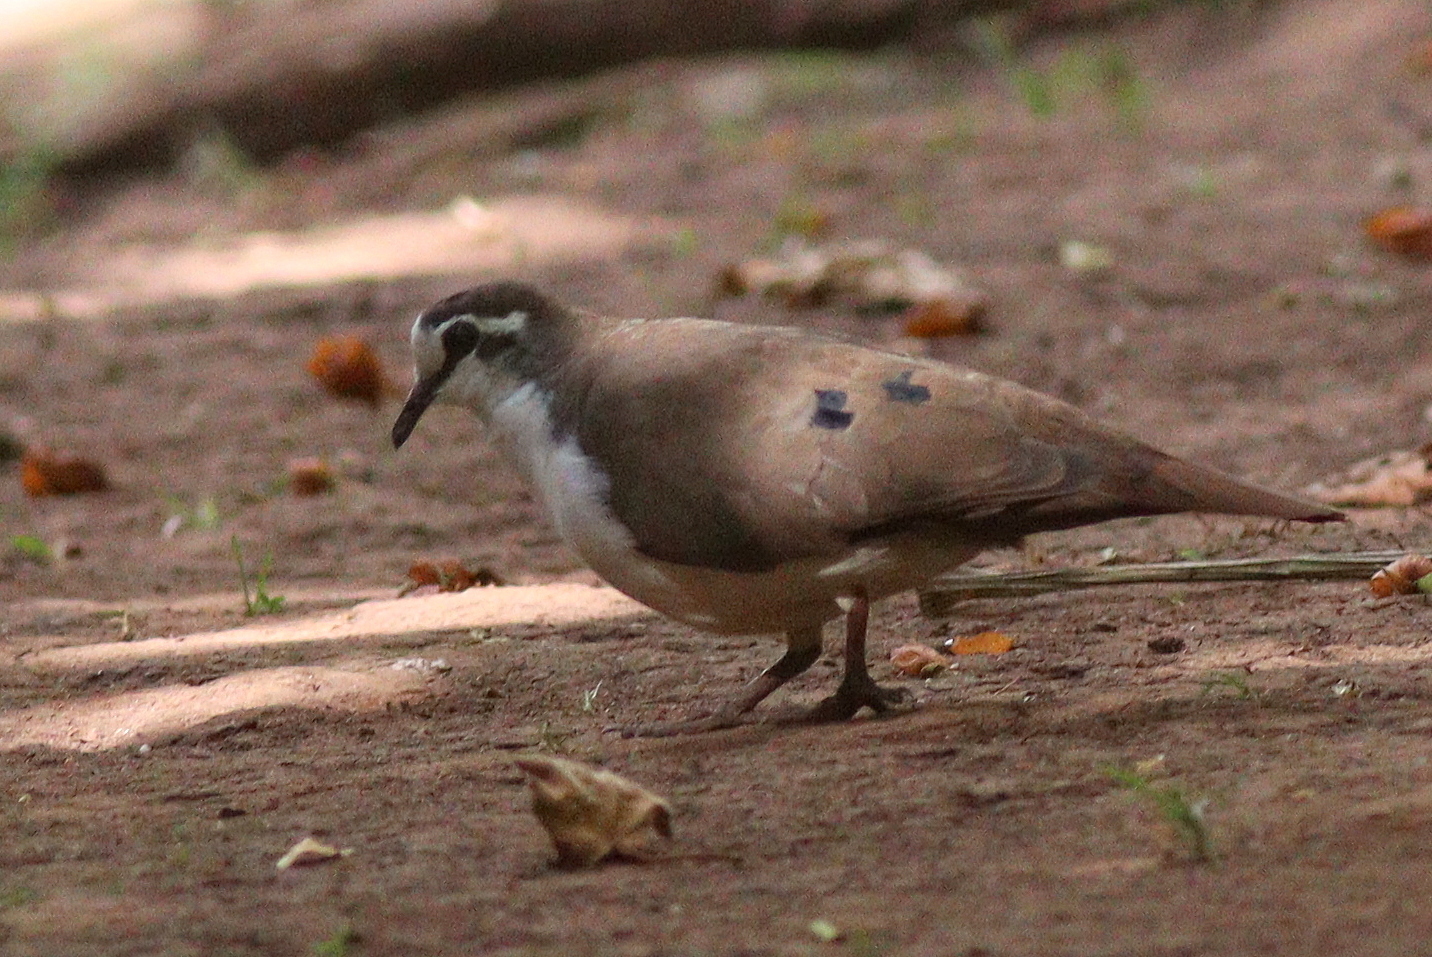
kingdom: Animalia
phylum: Chordata
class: Aves
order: Columbiformes
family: Columbidae
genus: Turtur
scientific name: Turtur tympanistria
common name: Tambourine dove
